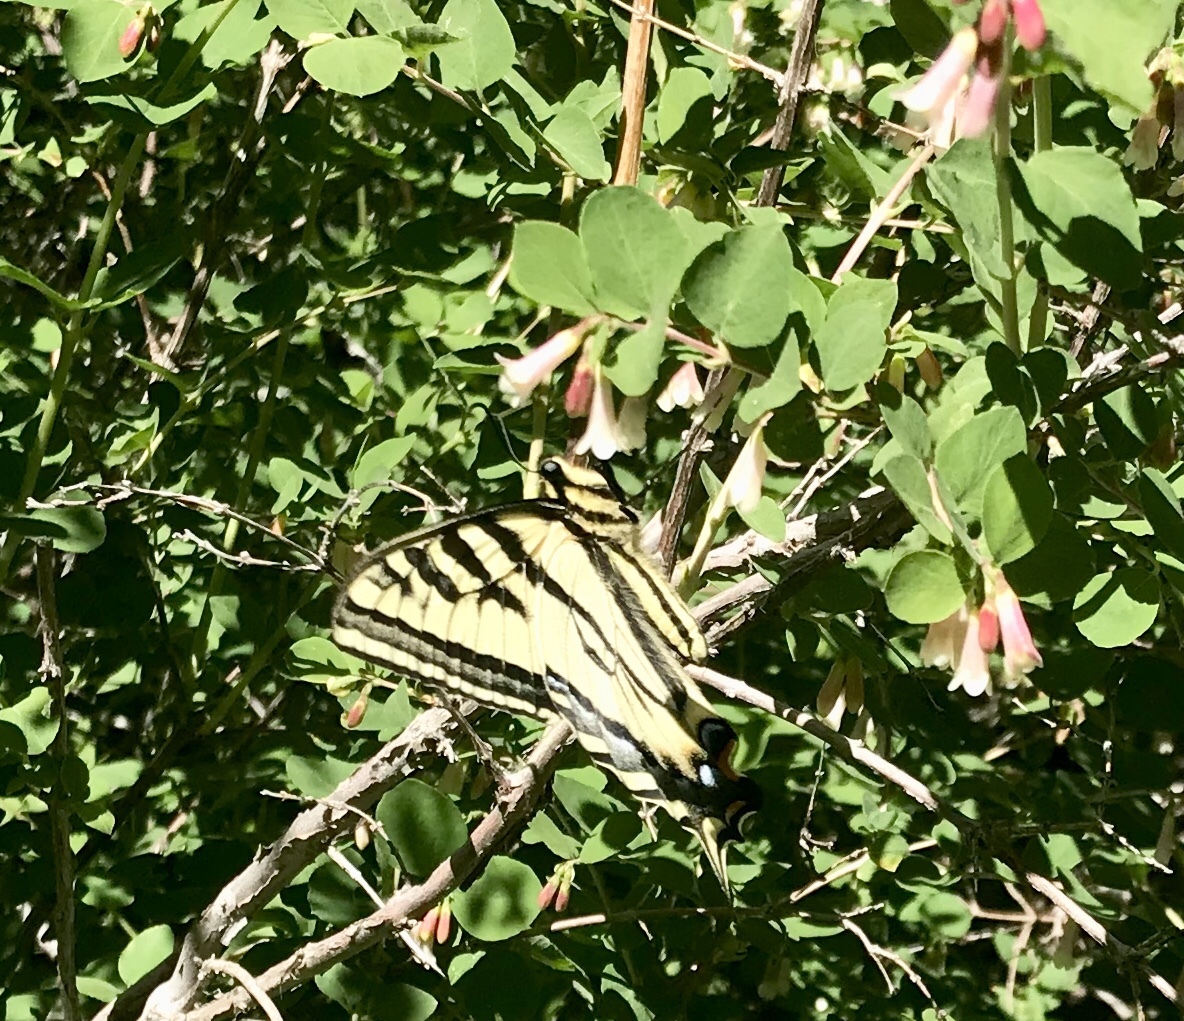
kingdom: Animalia
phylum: Arthropoda
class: Insecta
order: Lepidoptera
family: Papilionidae
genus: Papilio
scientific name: Papilio rutulus
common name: Western tiger swallowtail
